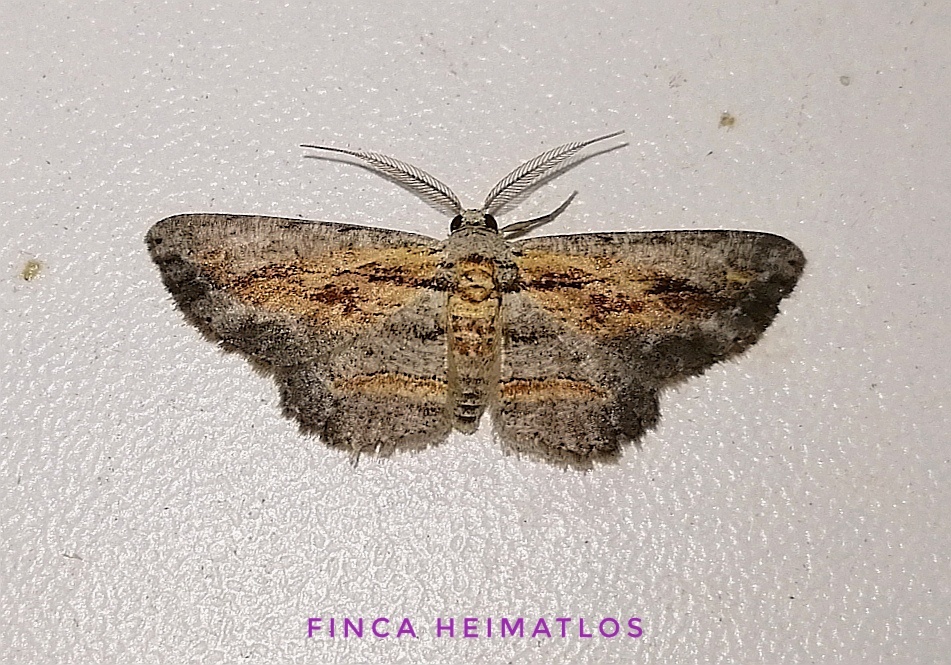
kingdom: Animalia
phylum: Arthropoda
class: Insecta
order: Lepidoptera
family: Geometridae
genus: Odysia
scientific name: Odysia
